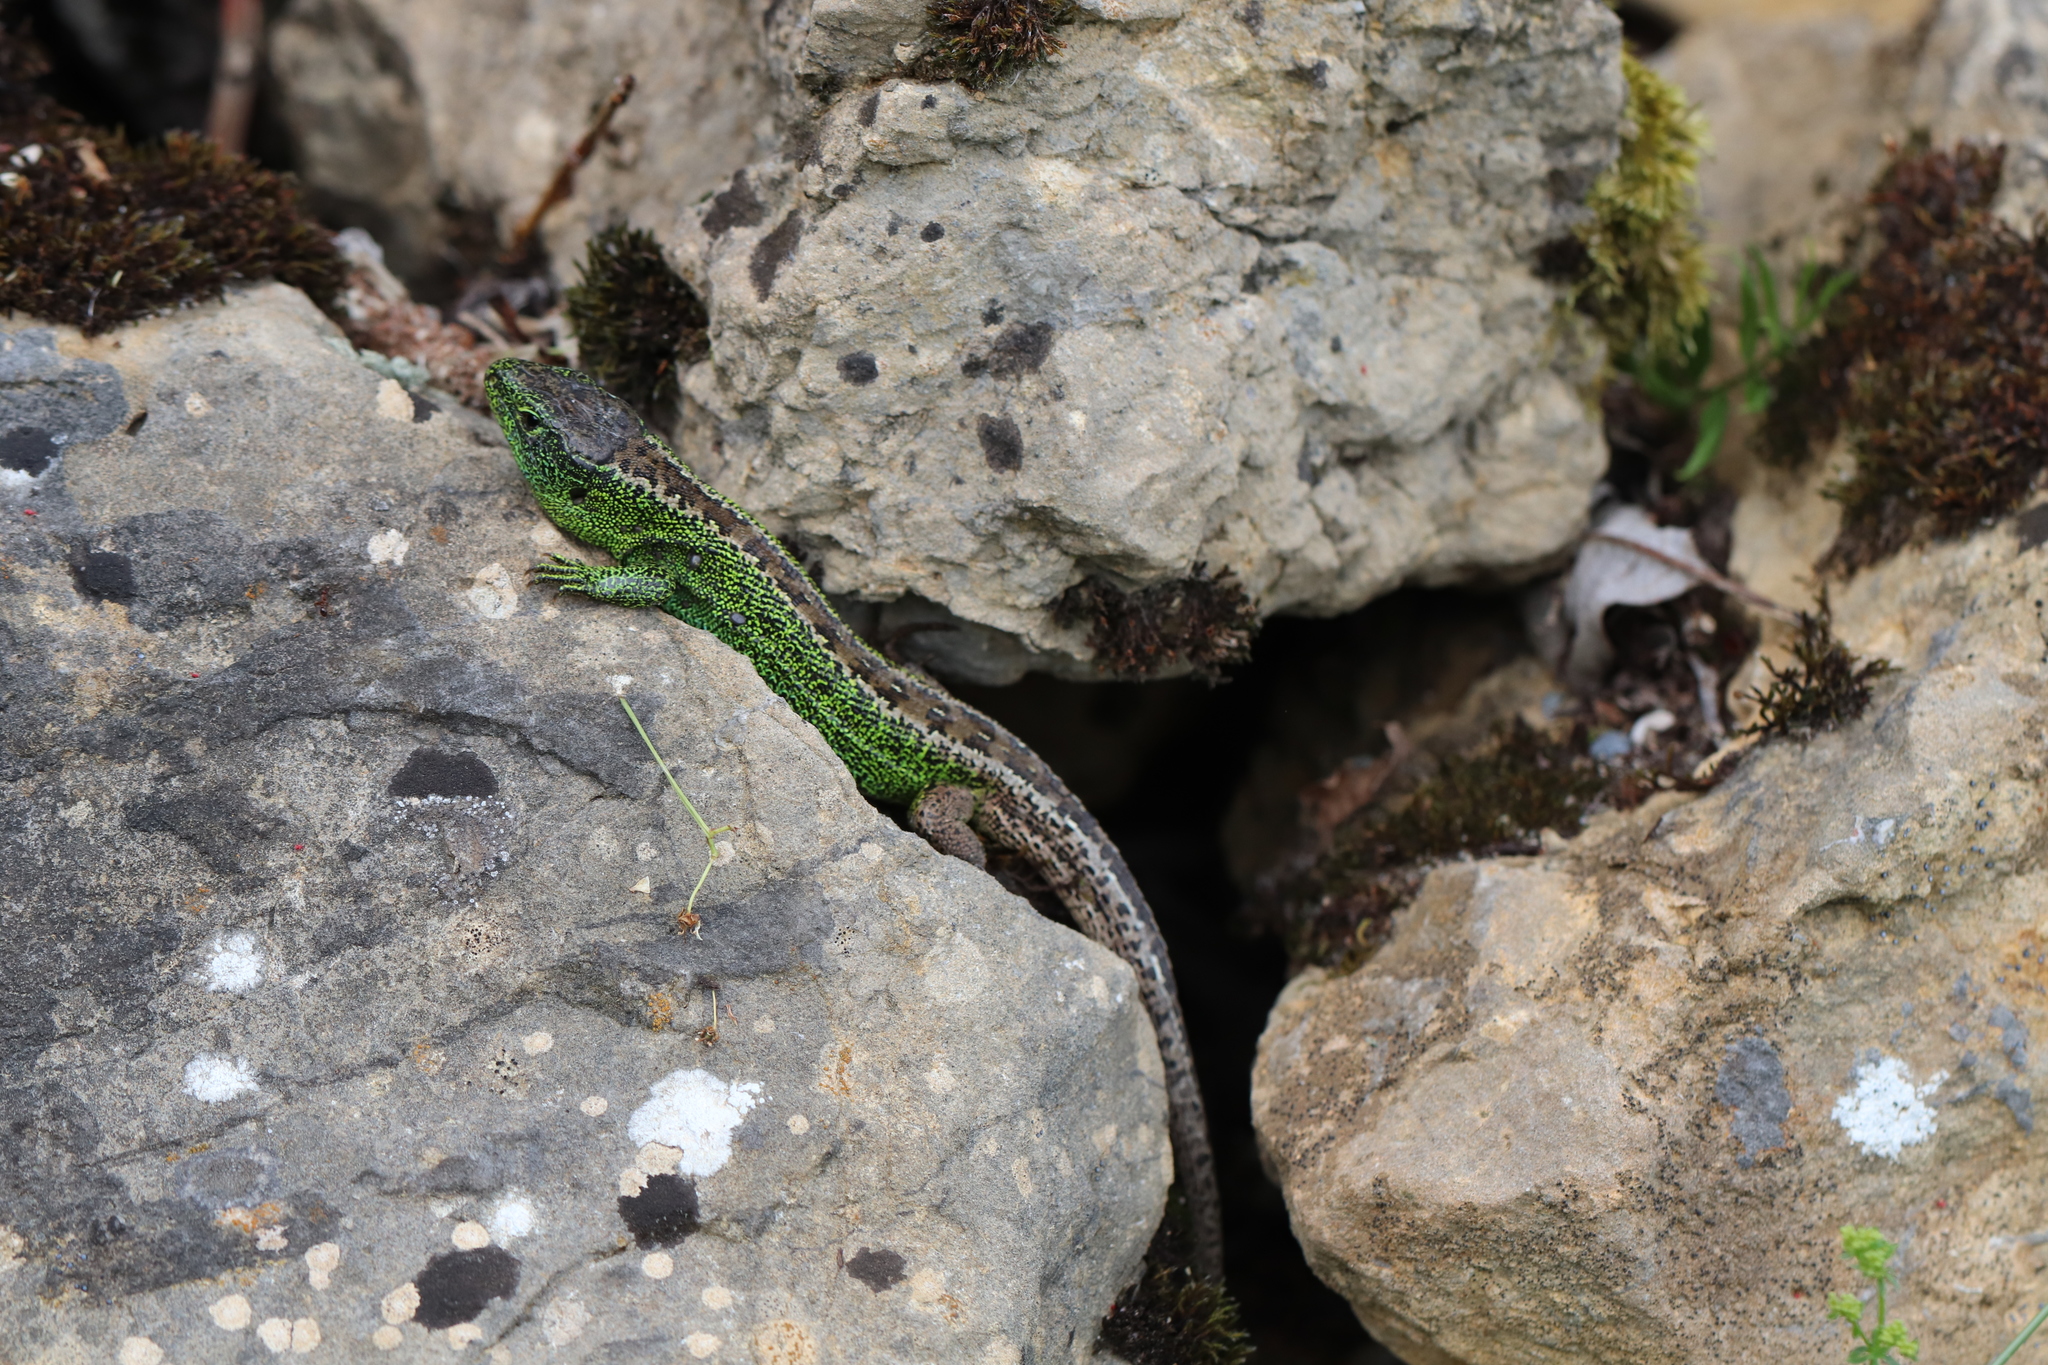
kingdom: Animalia
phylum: Chordata
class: Squamata
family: Lacertidae
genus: Lacerta
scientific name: Lacerta agilis
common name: Sand lizard
